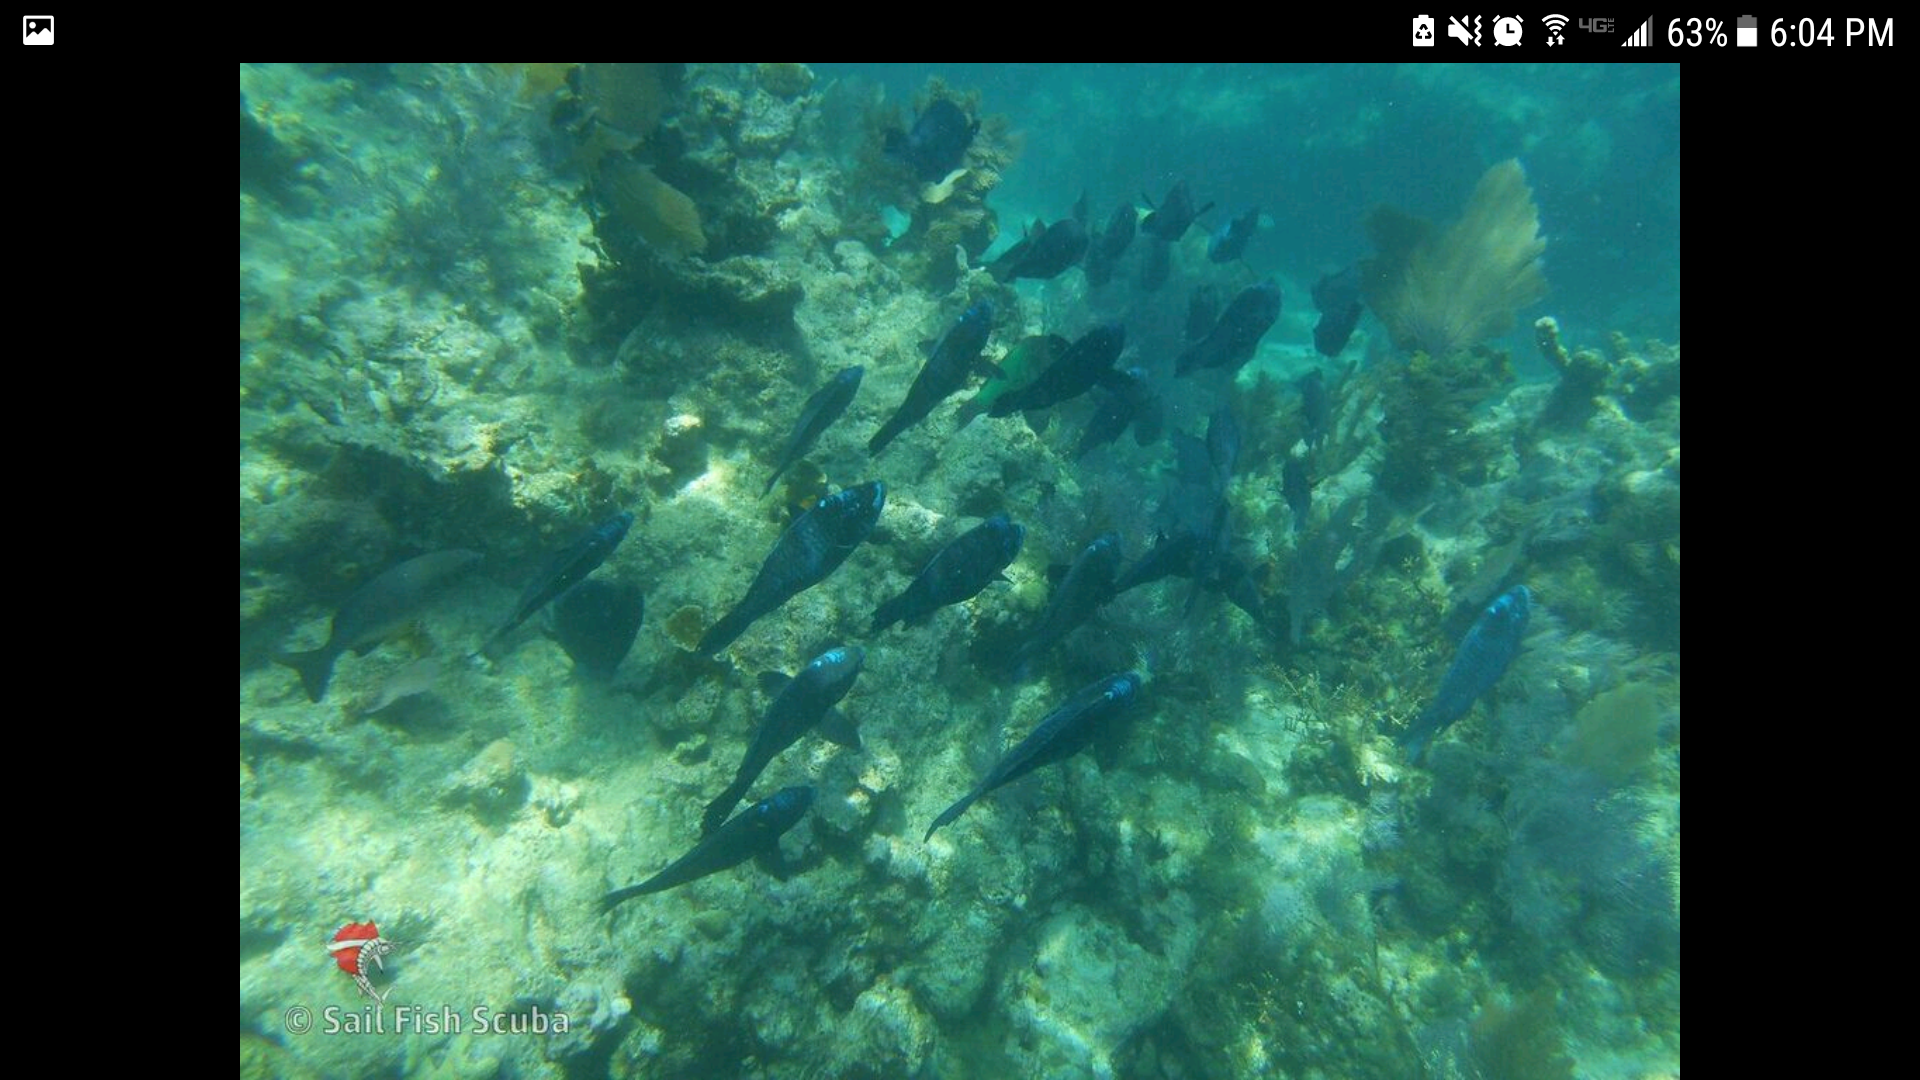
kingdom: Animalia
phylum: Chordata
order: Perciformes
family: Scaridae
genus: Scarus
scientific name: Scarus coelestinus
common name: Midnight parrotfish
